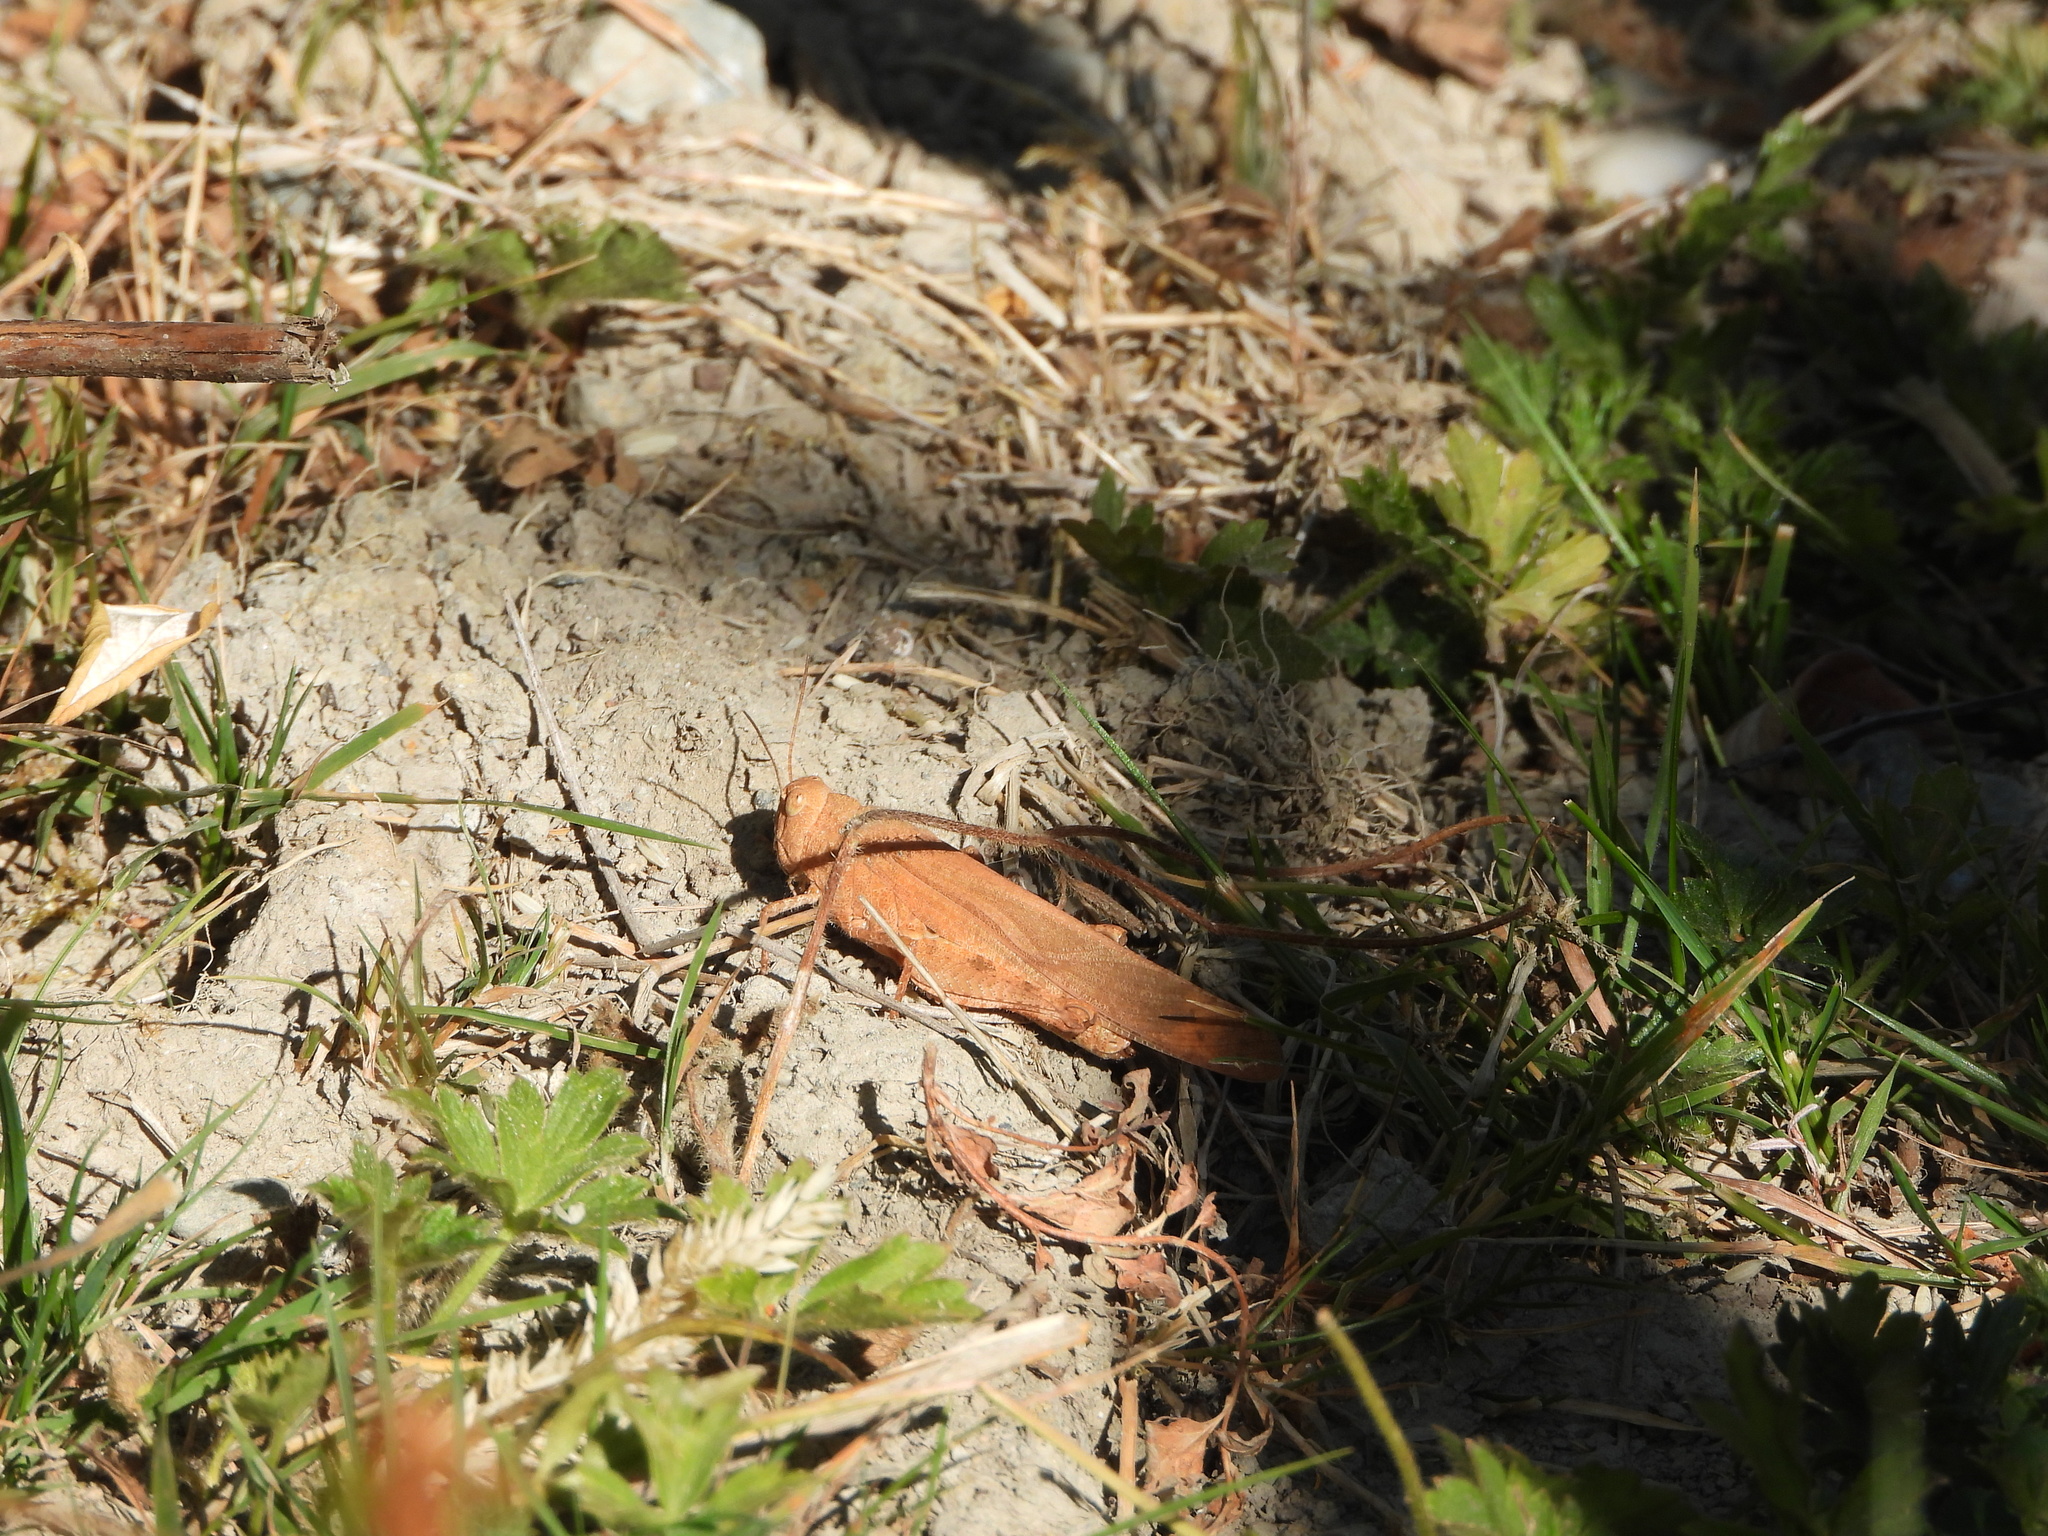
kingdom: Animalia
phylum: Arthropoda
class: Insecta
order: Orthoptera
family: Acrididae
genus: Dissosteira
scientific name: Dissosteira carolina
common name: Carolina grasshopper
